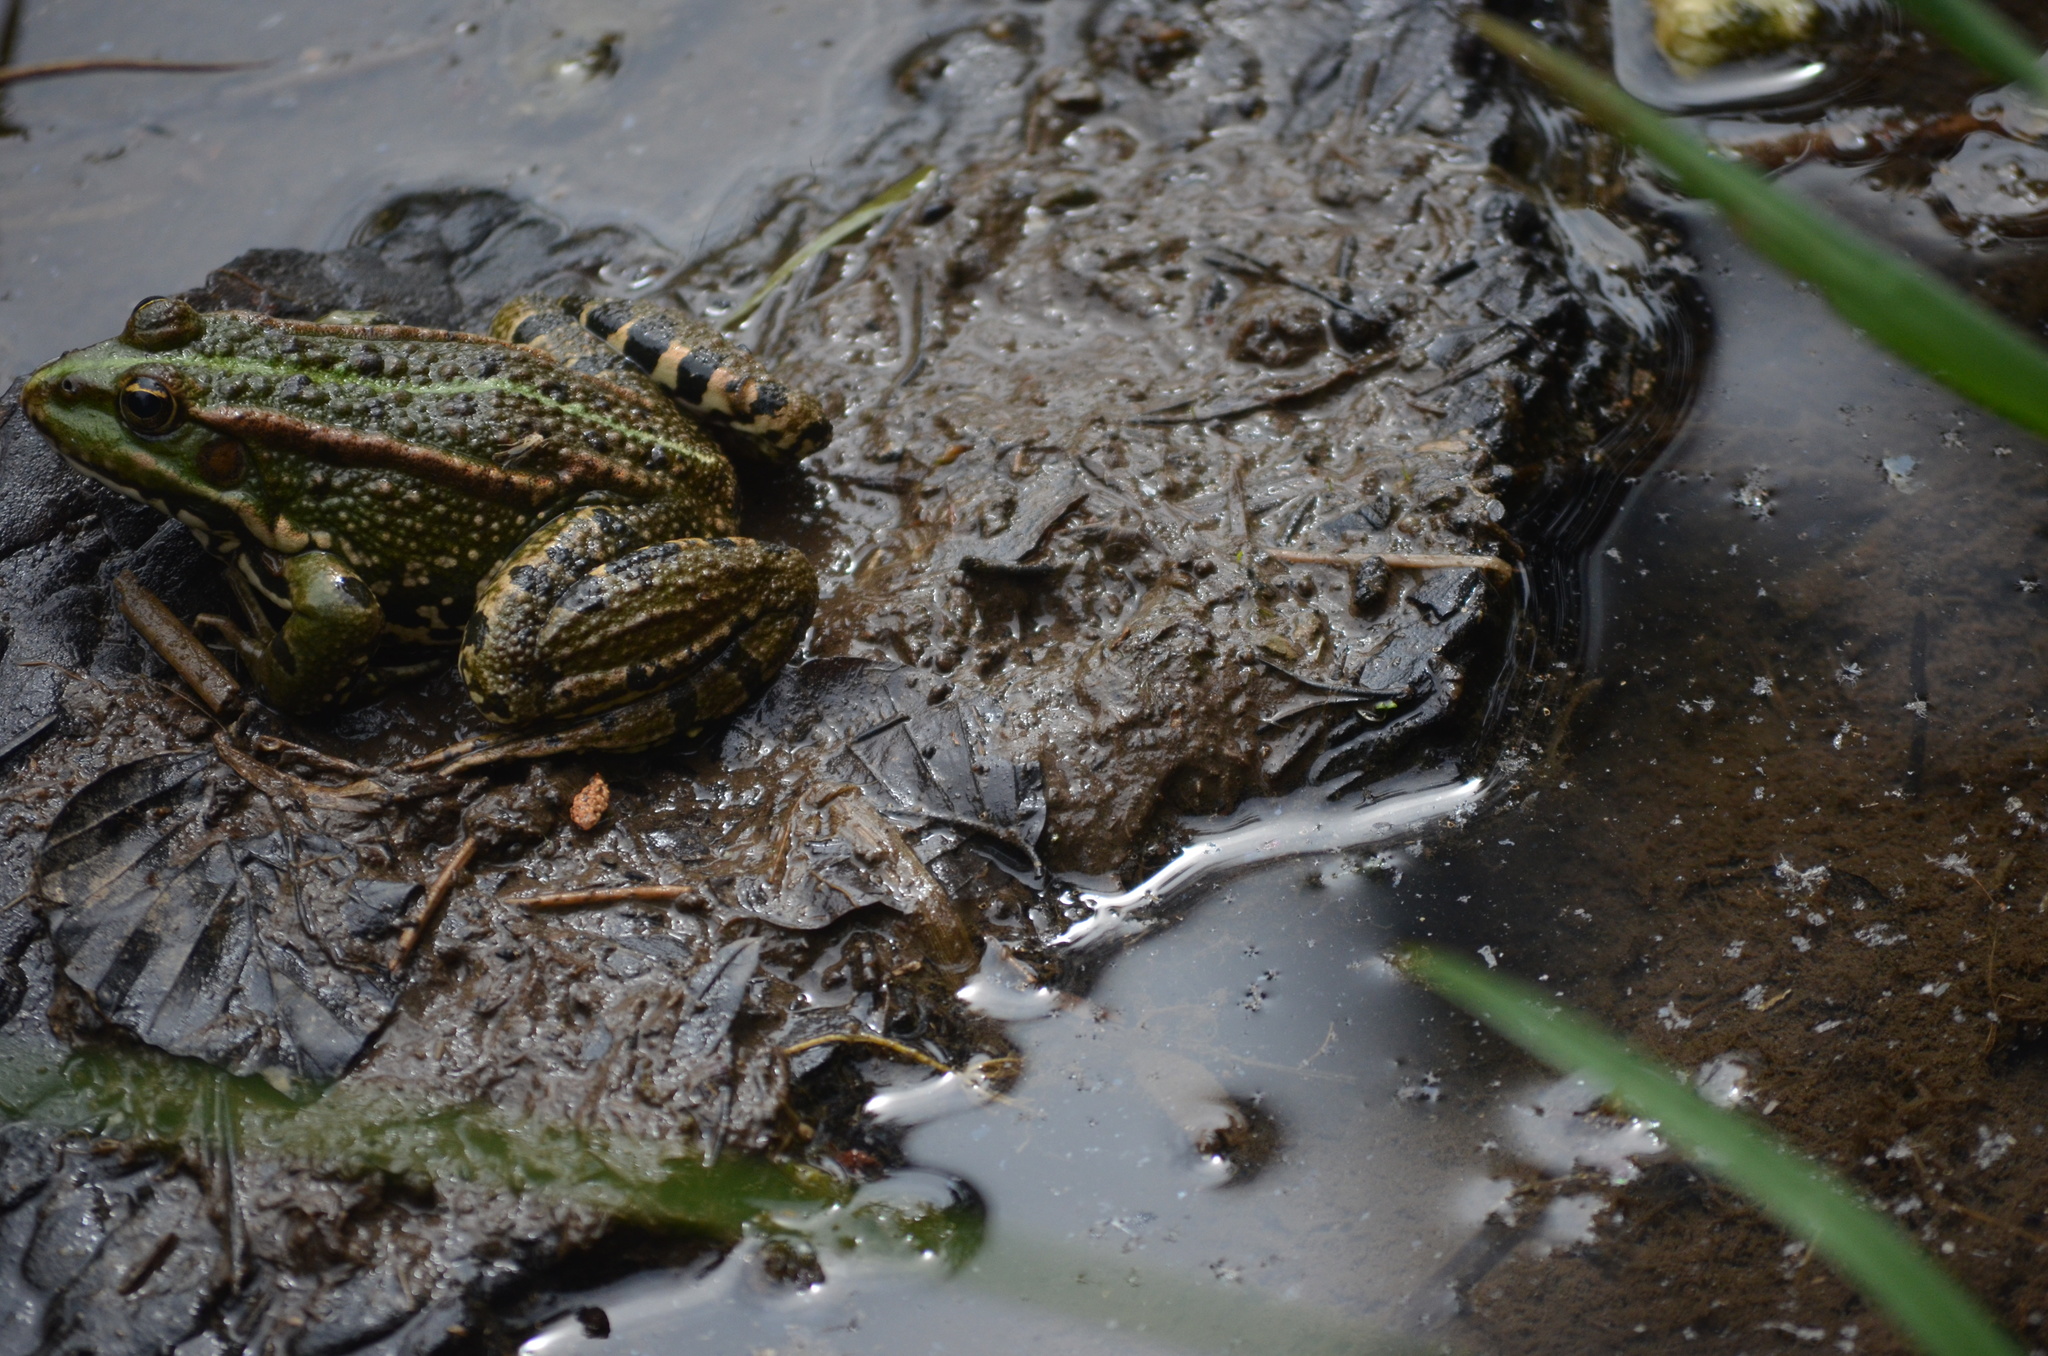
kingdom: Animalia
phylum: Chordata
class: Amphibia
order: Anura
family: Ranidae
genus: Pelophylax
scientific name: Pelophylax perezi
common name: Perez's frog
